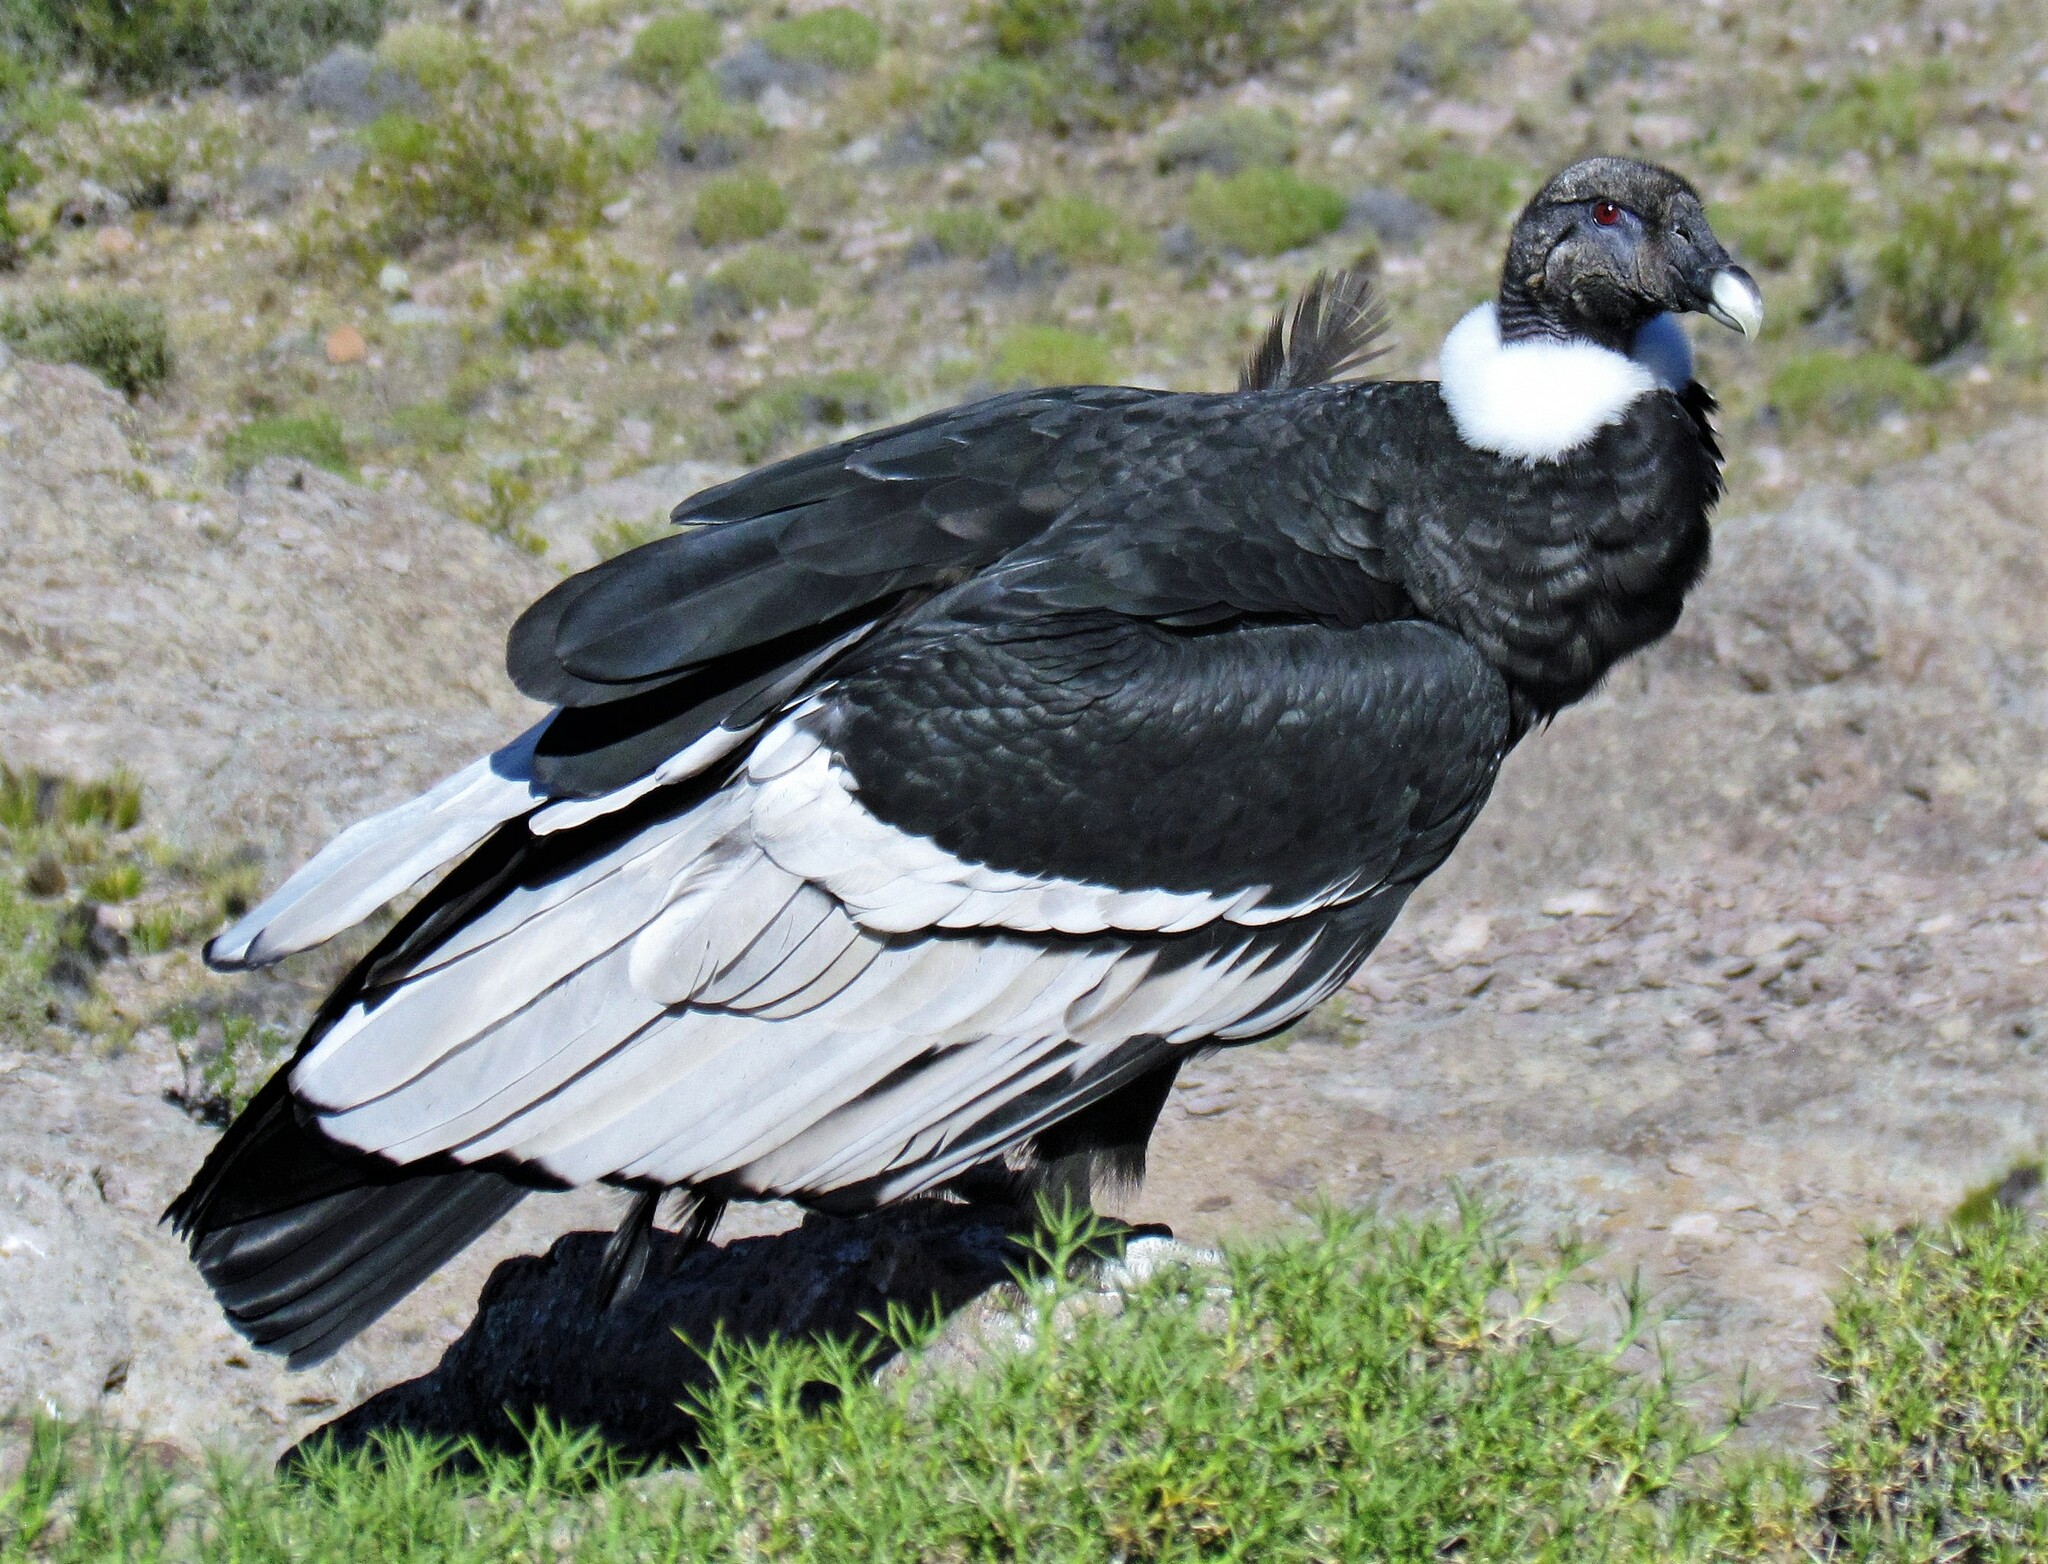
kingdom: Animalia
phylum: Chordata
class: Aves
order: Accipitriformes
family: Cathartidae
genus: Vultur
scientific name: Vultur gryphus
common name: Andean condor
